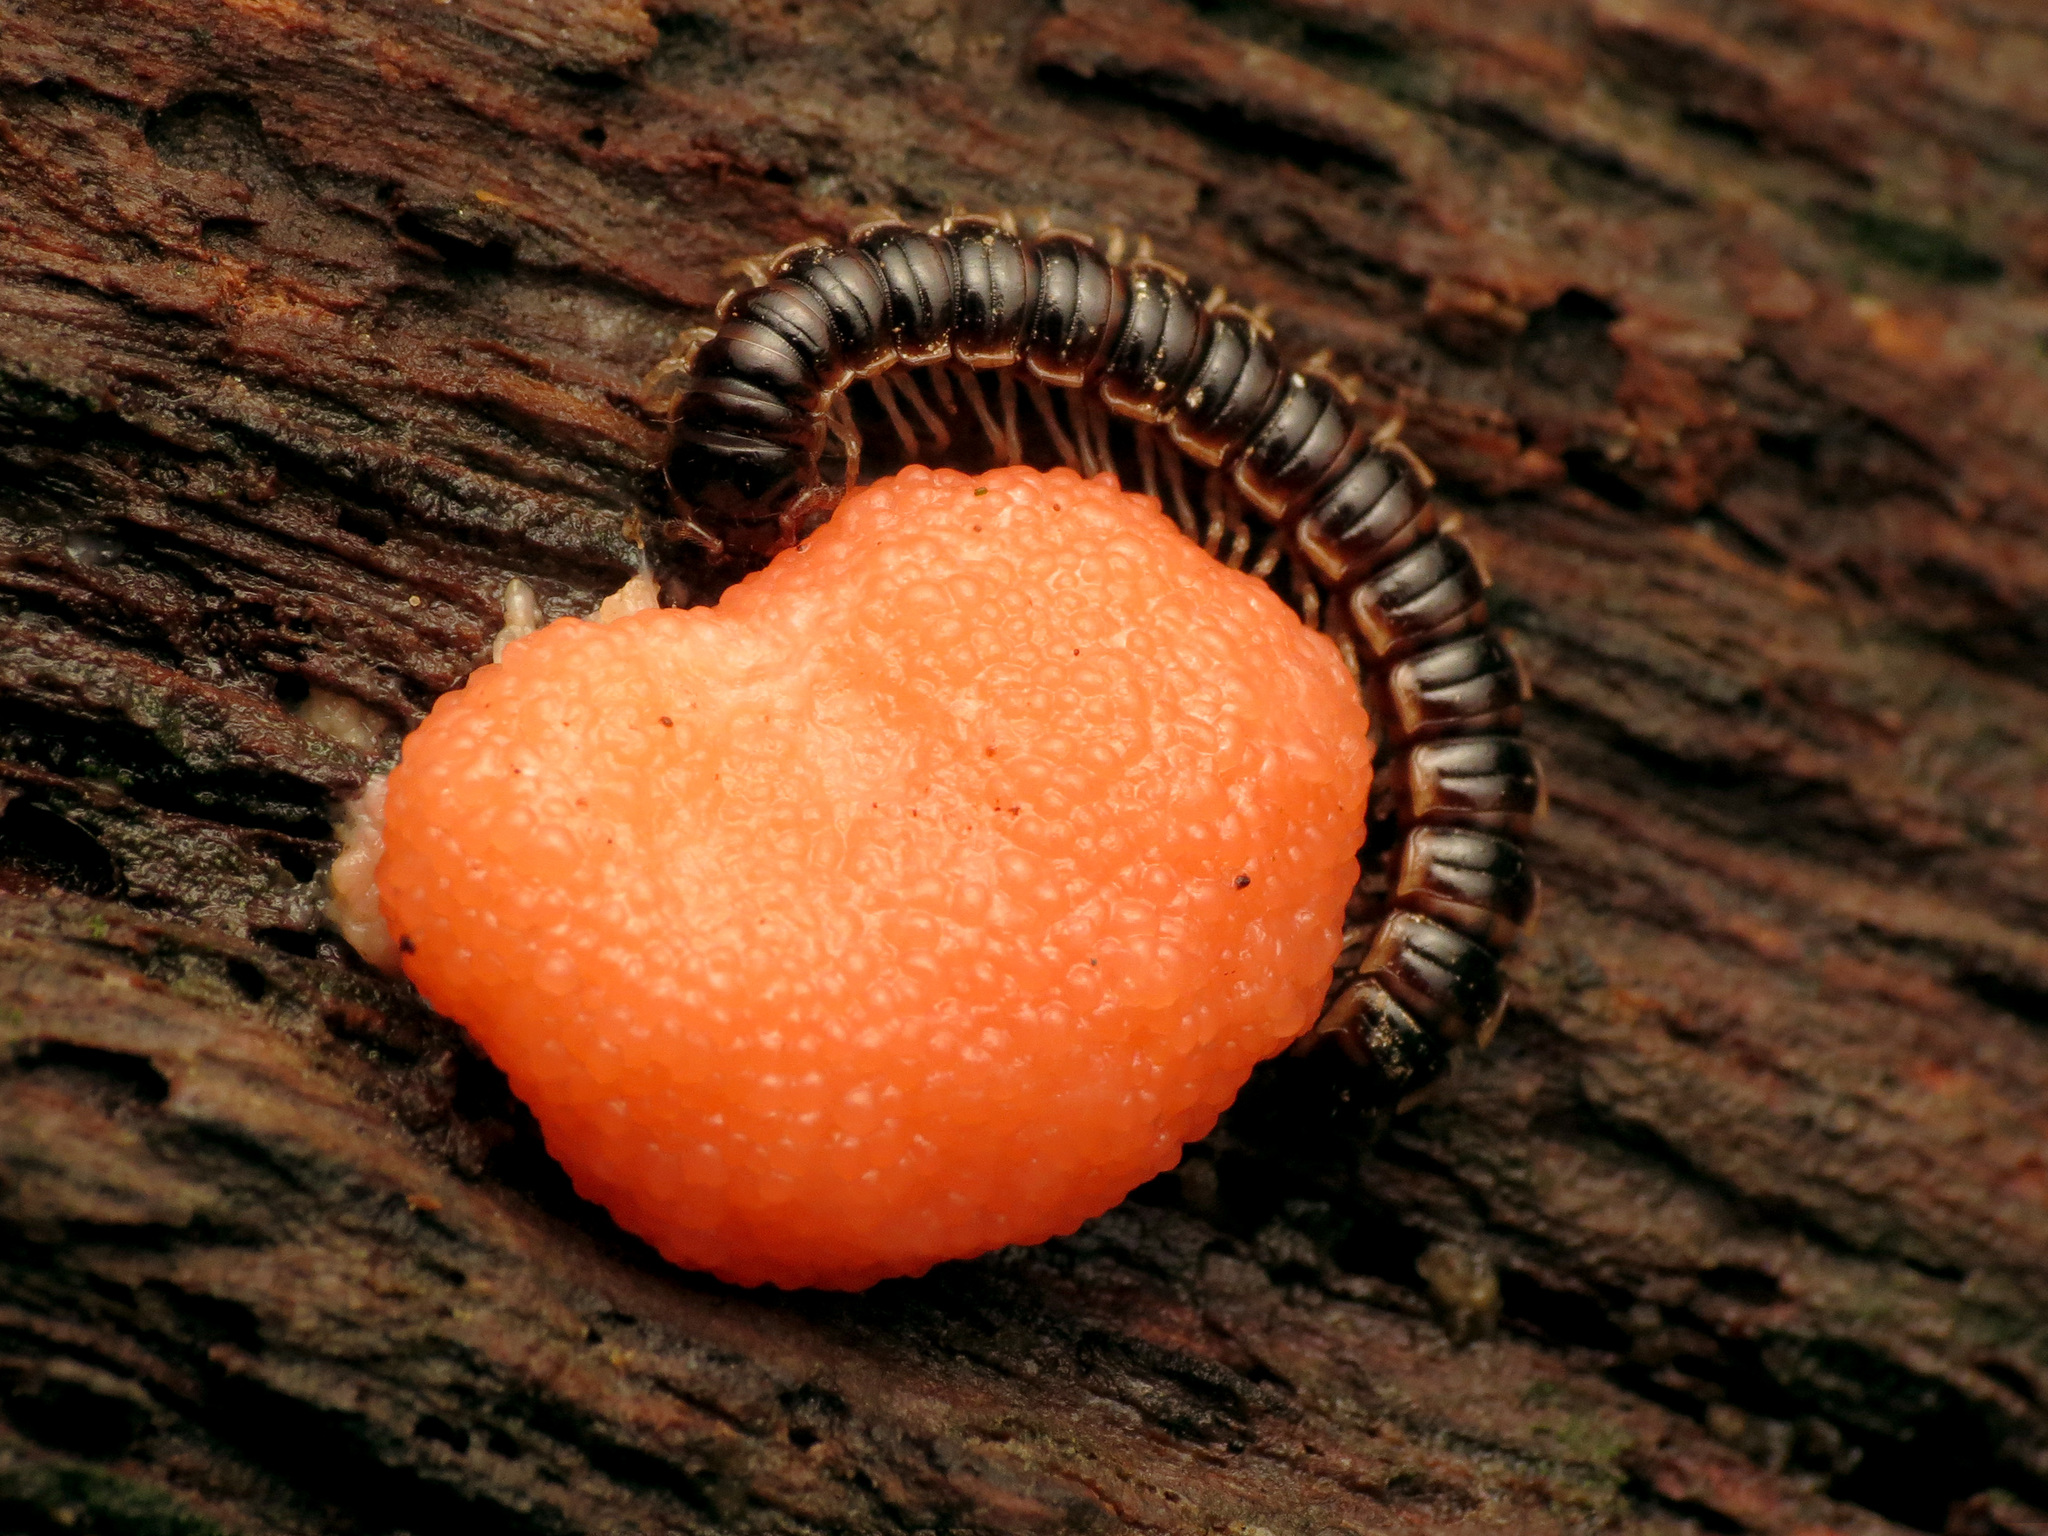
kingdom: Animalia
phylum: Arthropoda
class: Diplopoda
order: Polydesmida
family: Paradoxosomatidae
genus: Oxidus
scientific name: Oxidus gracilis
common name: Greenhouse millipede
